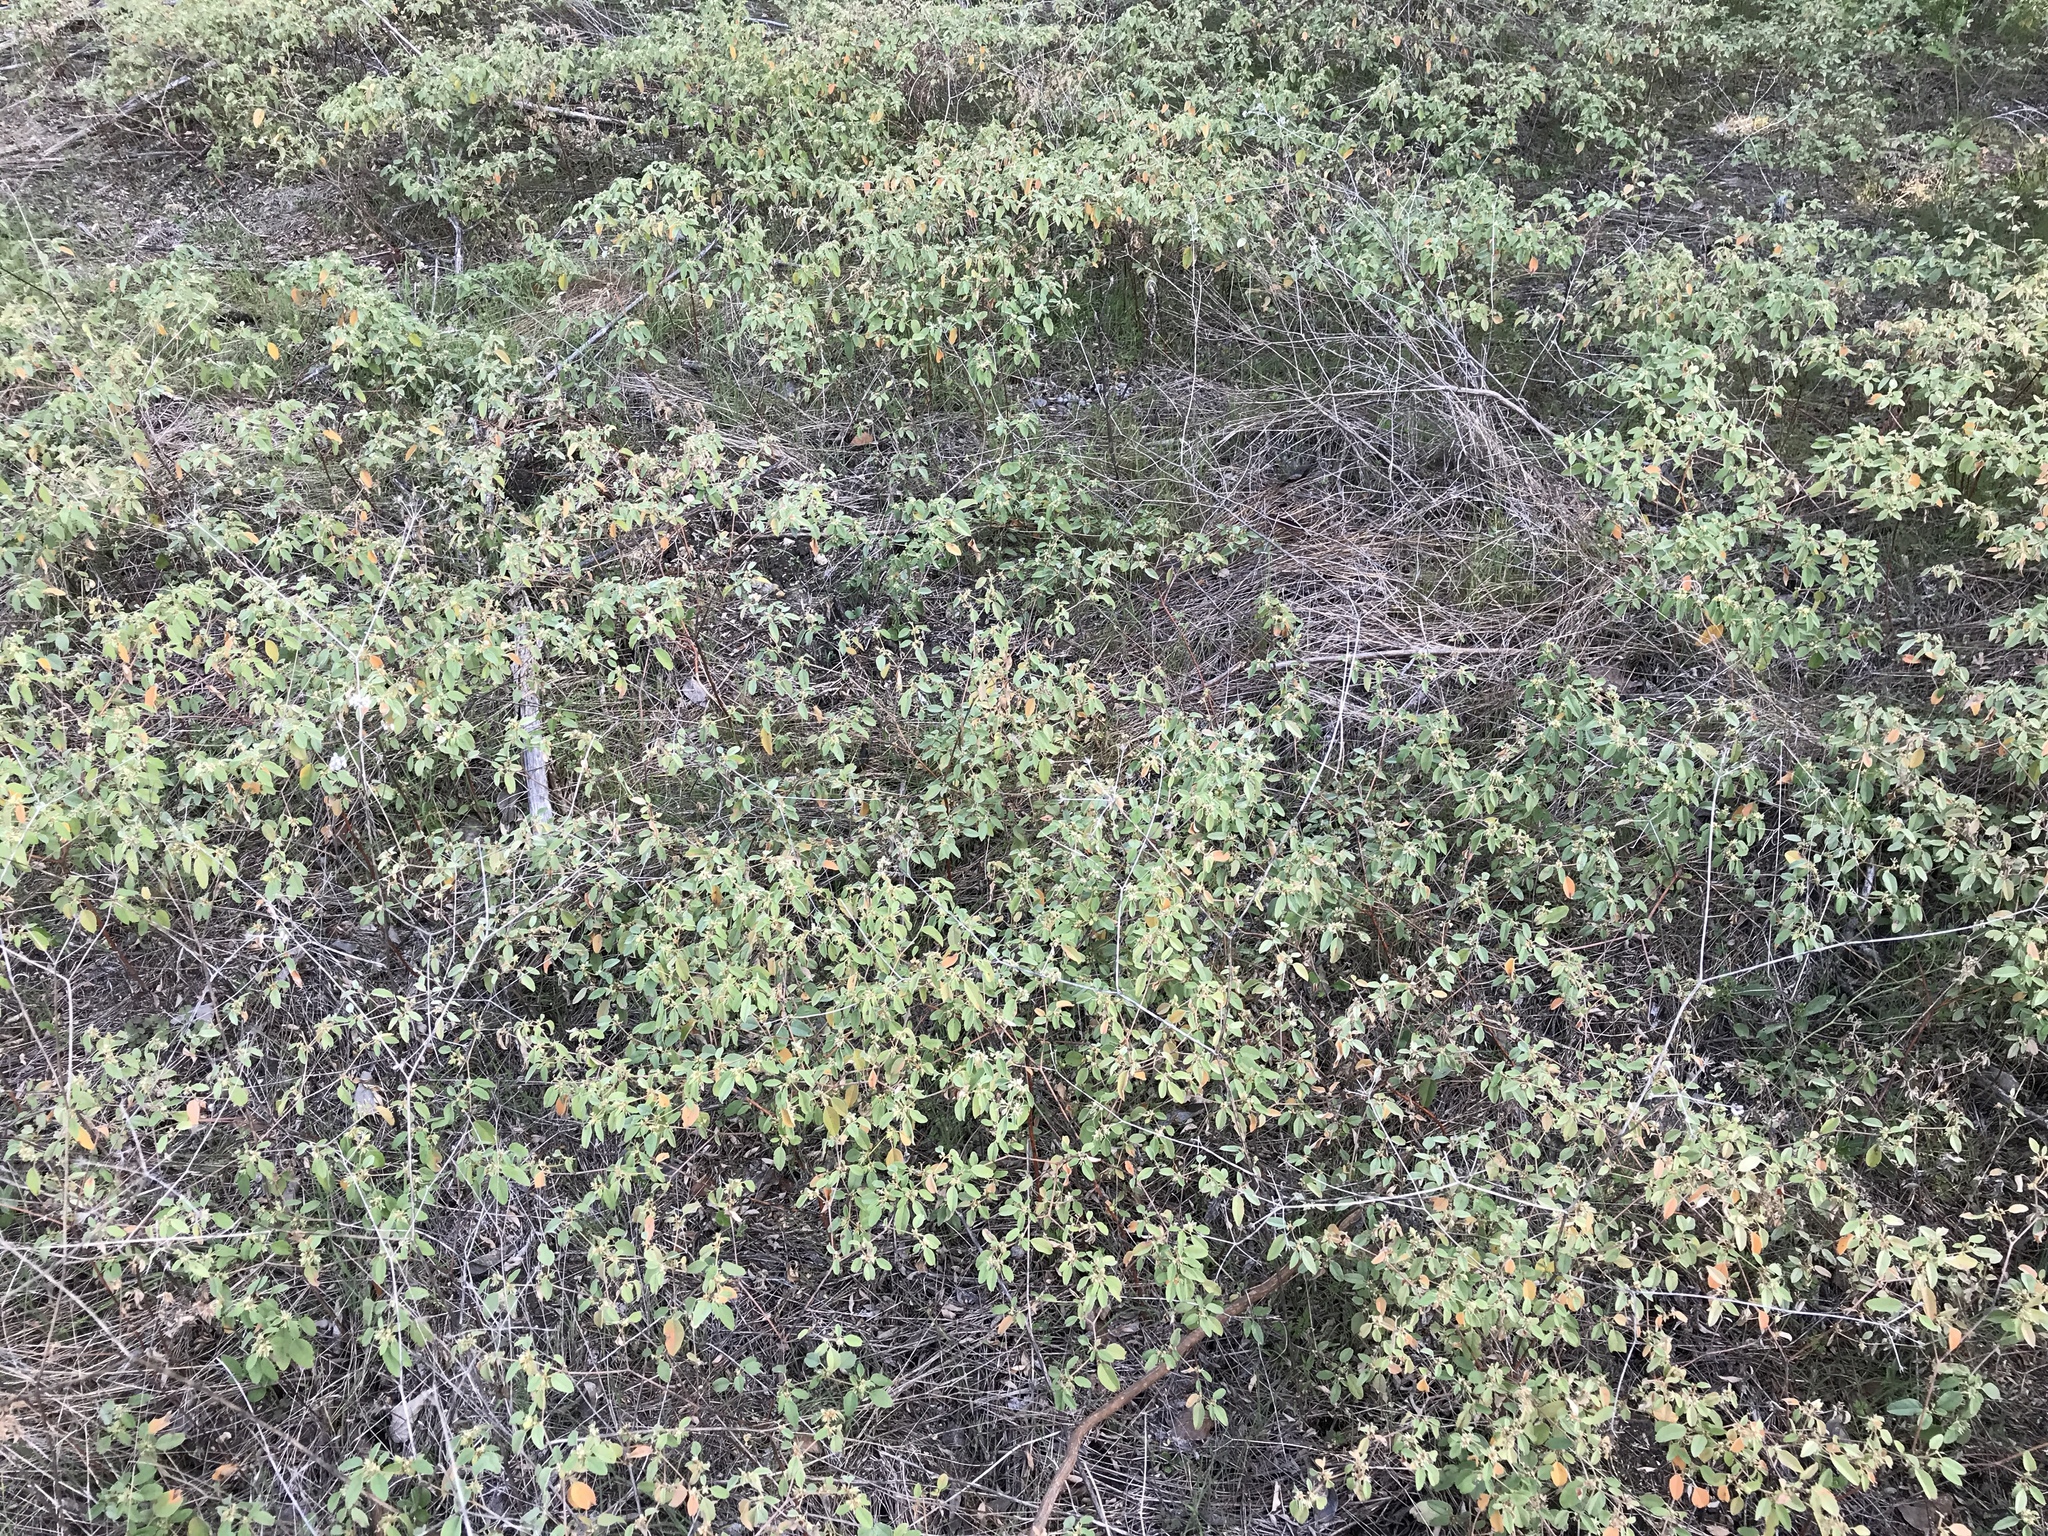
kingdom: Plantae
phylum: Tracheophyta
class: Magnoliopsida
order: Malpighiales
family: Euphorbiaceae
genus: Croton
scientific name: Croton monanthogynus
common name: One-seed croton
